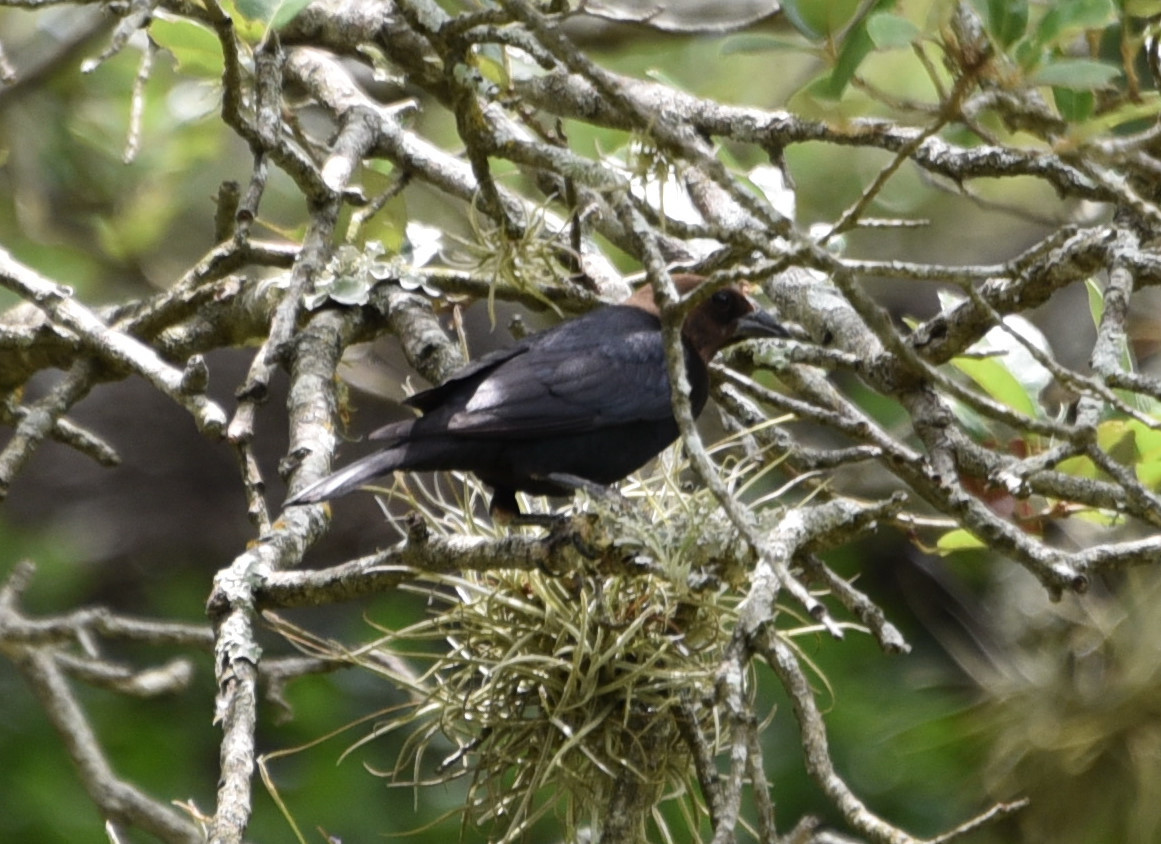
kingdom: Animalia
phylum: Chordata
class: Aves
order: Passeriformes
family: Icteridae
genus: Molothrus
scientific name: Molothrus ater
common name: Brown-headed cowbird
